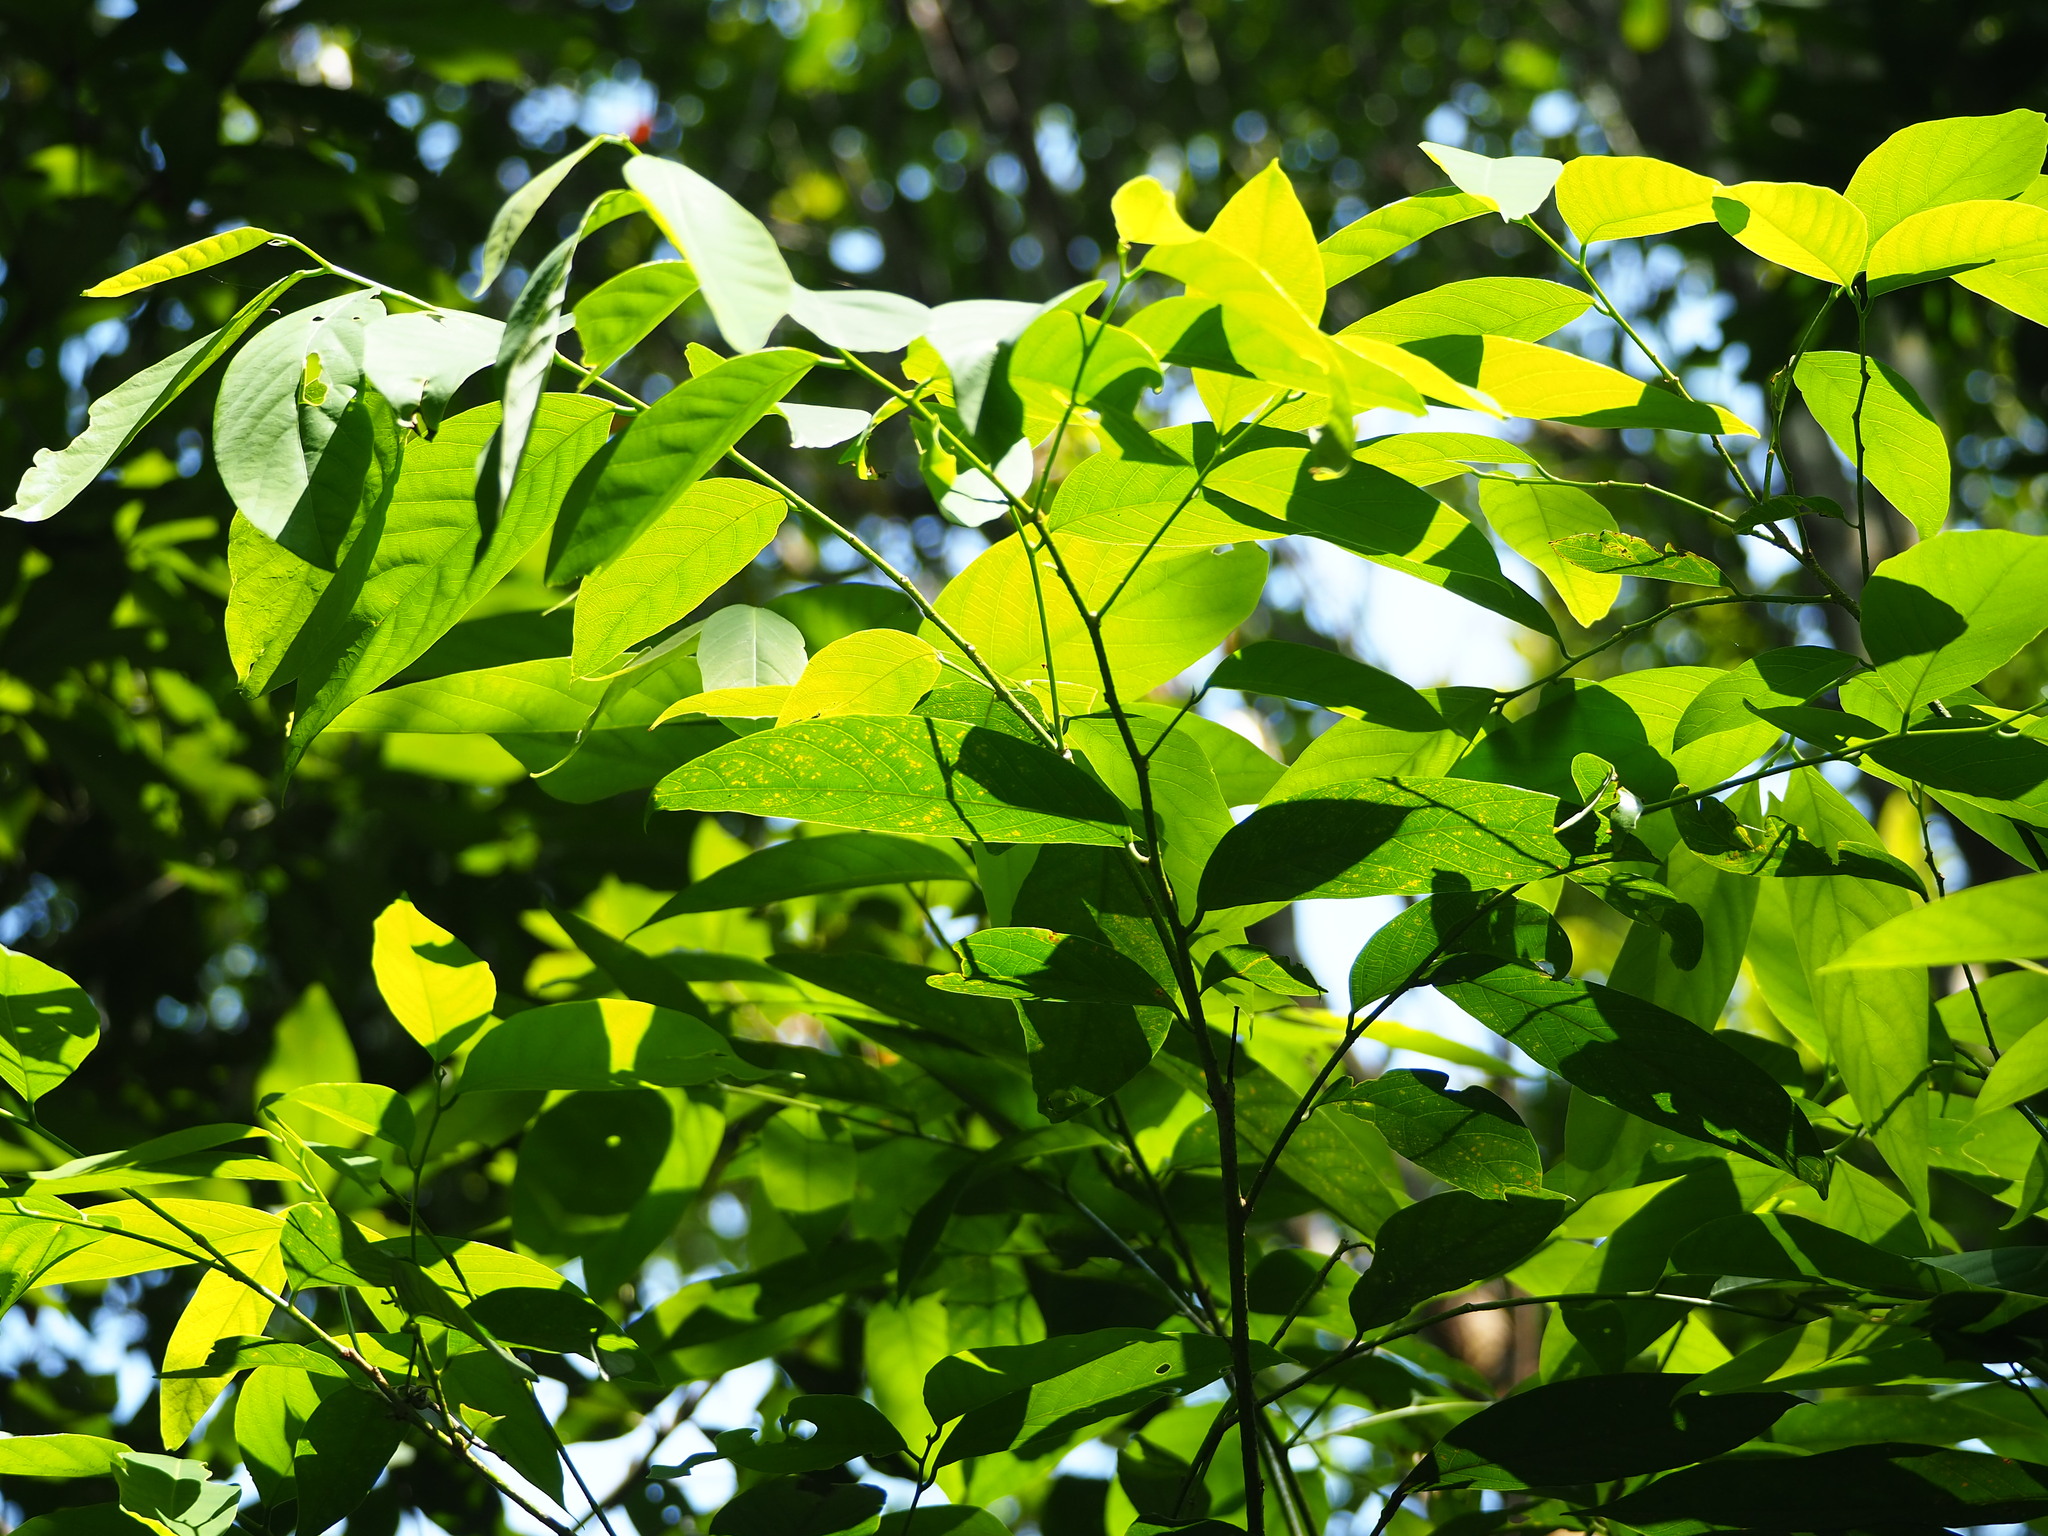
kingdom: Plantae
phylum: Tracheophyta
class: Magnoliopsida
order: Malpighiales
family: Phyllanthaceae
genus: Bridelia
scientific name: Bridelia balansae
